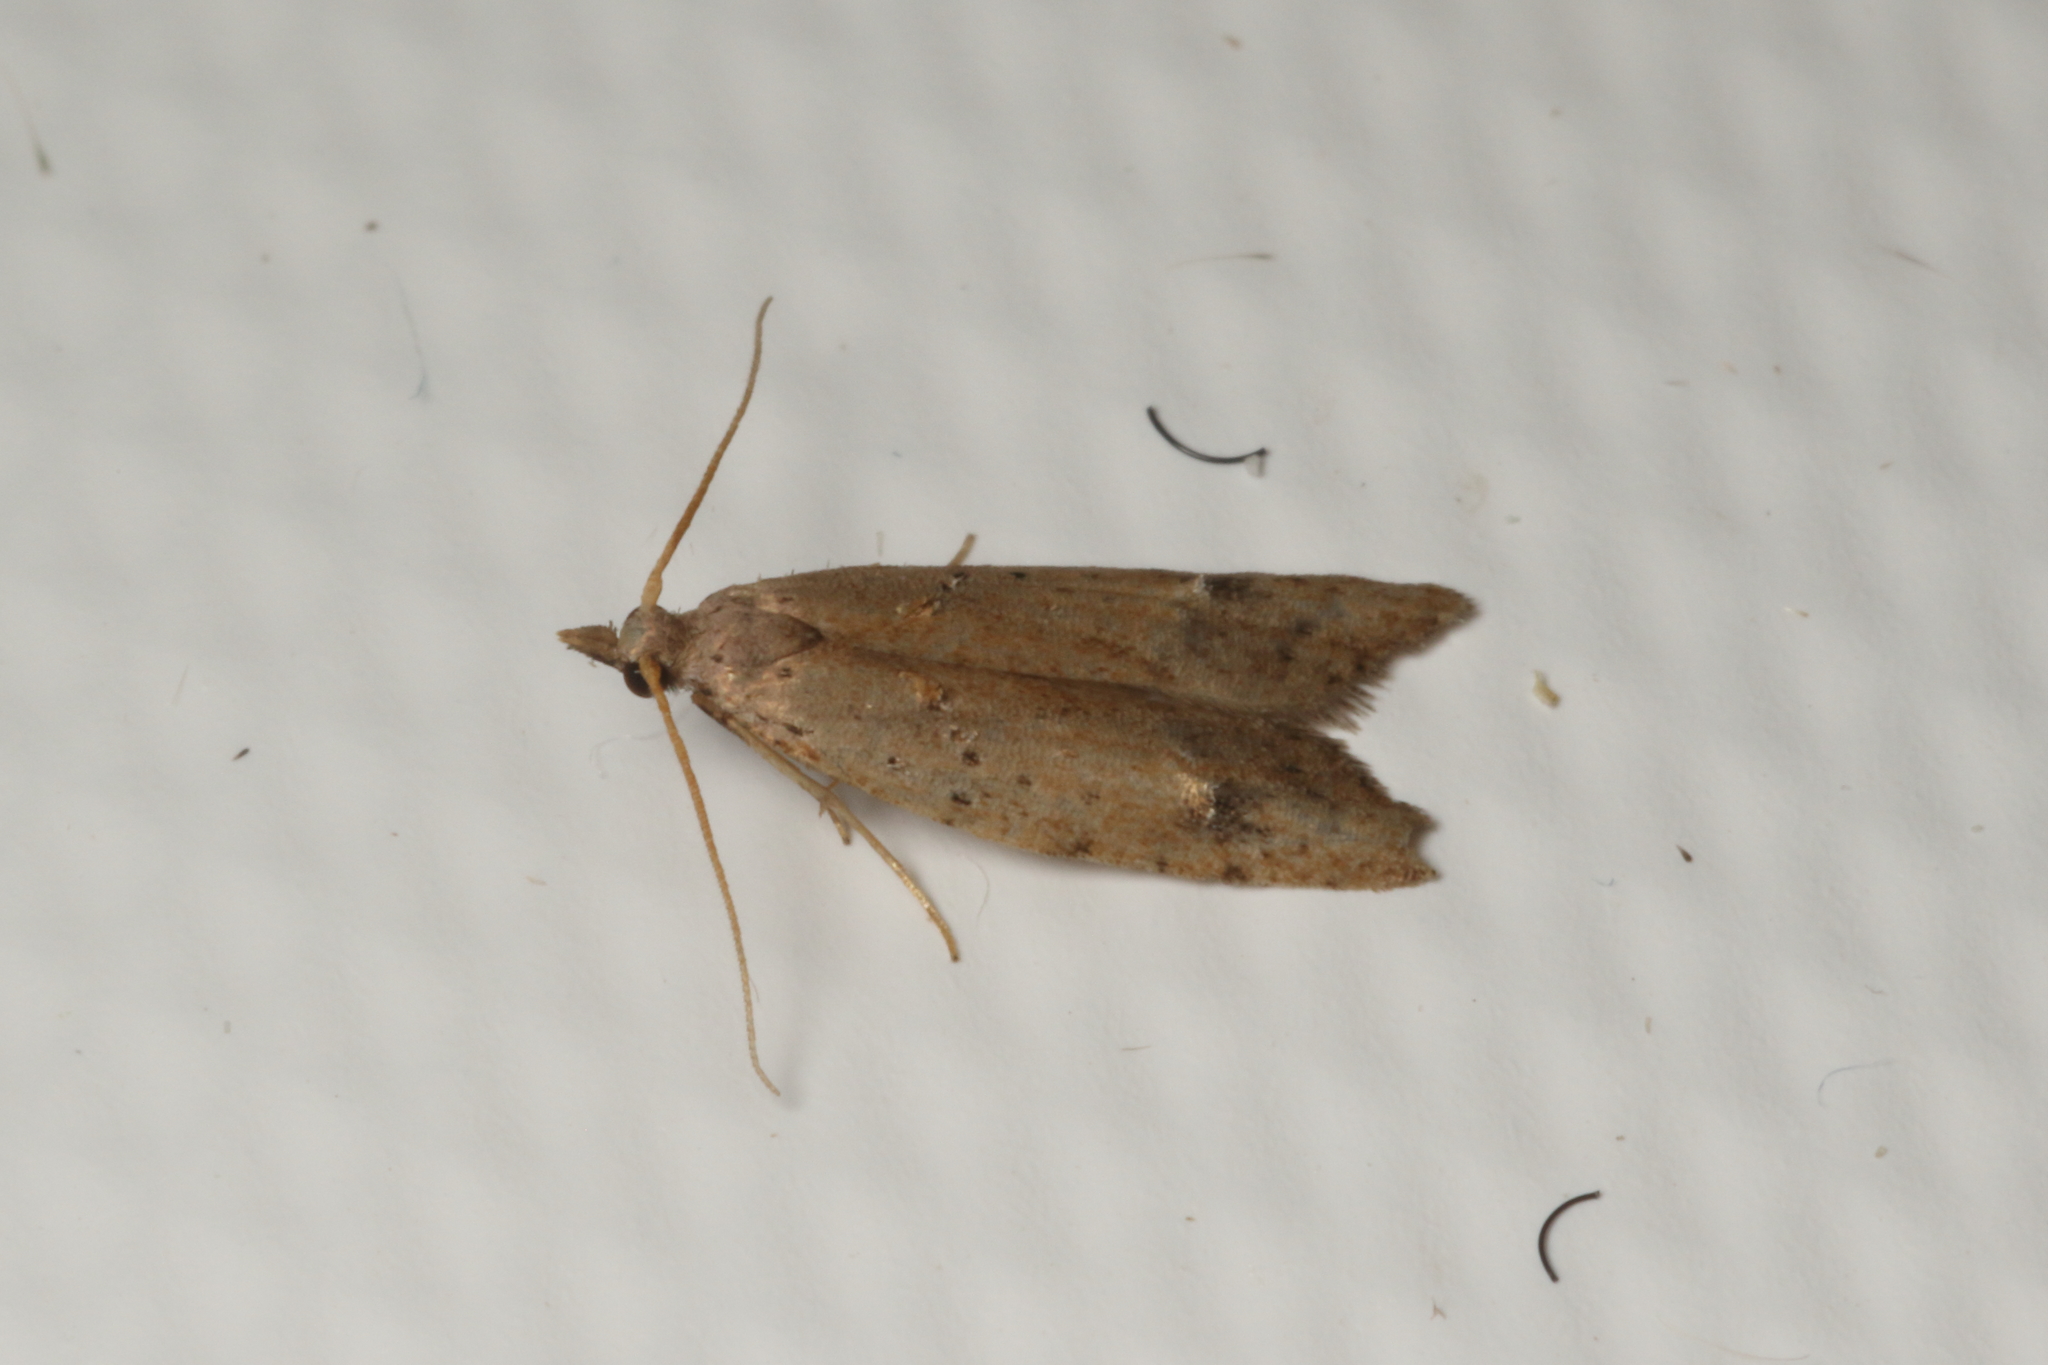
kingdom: Animalia
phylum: Arthropoda
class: Insecta
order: Lepidoptera
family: Carposinidae
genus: Carposina
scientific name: Carposina rubophaga
